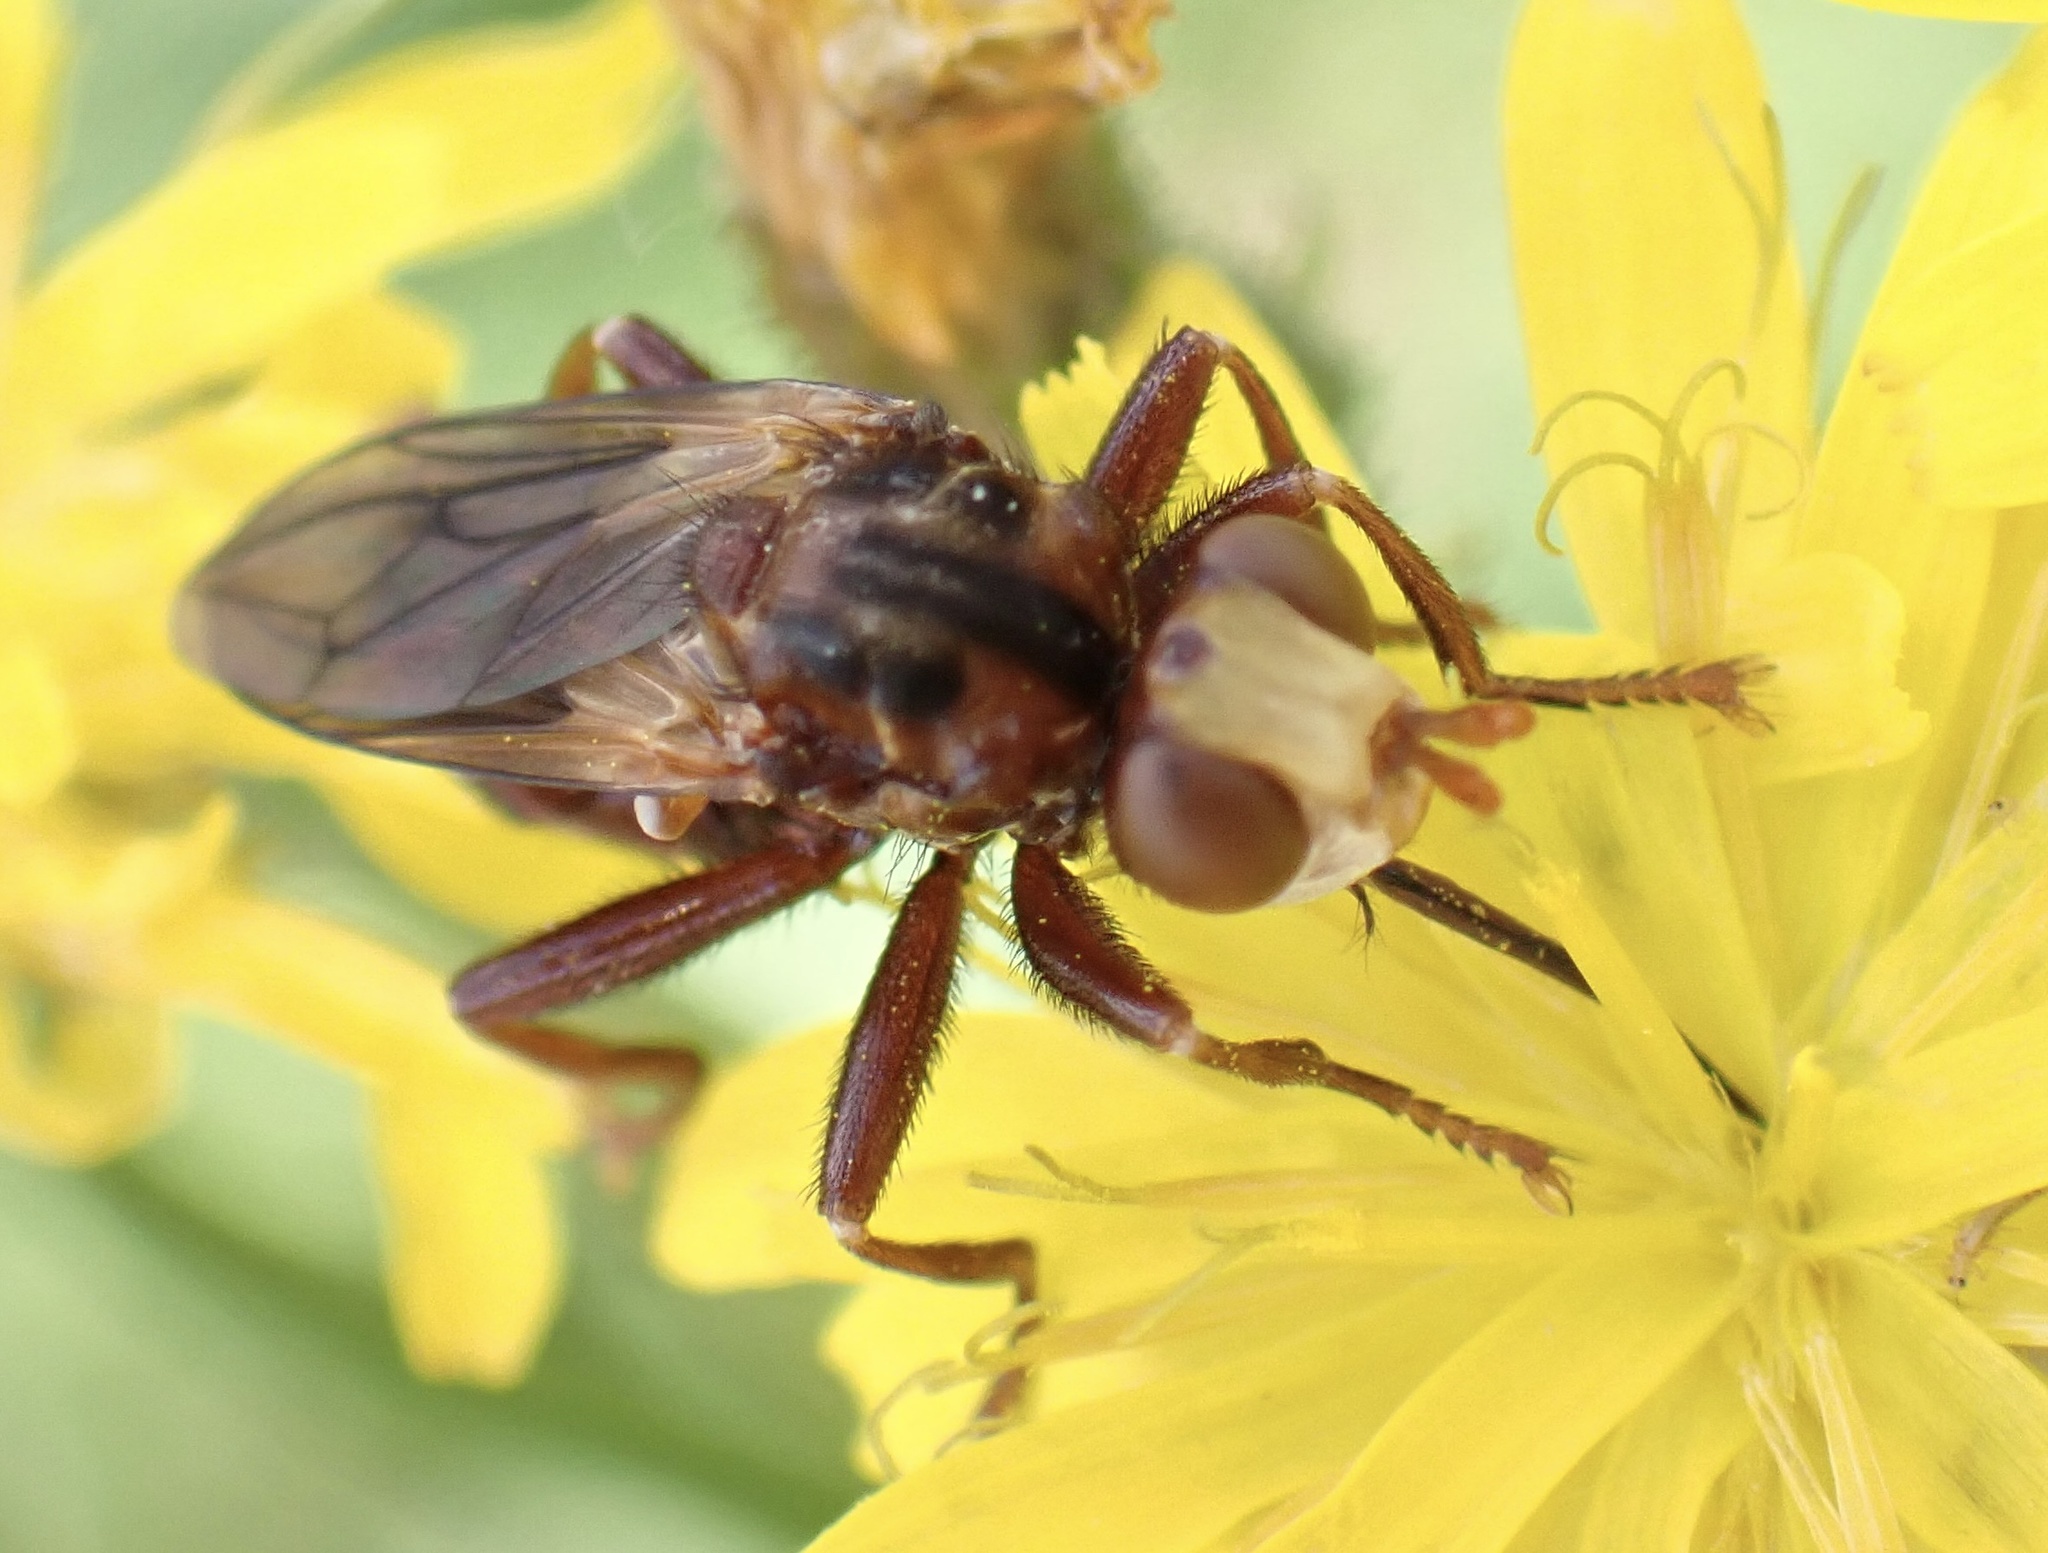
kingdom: Animalia
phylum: Arthropoda
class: Insecta
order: Diptera
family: Conopidae
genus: Sicus
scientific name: Sicus ferrugineus
